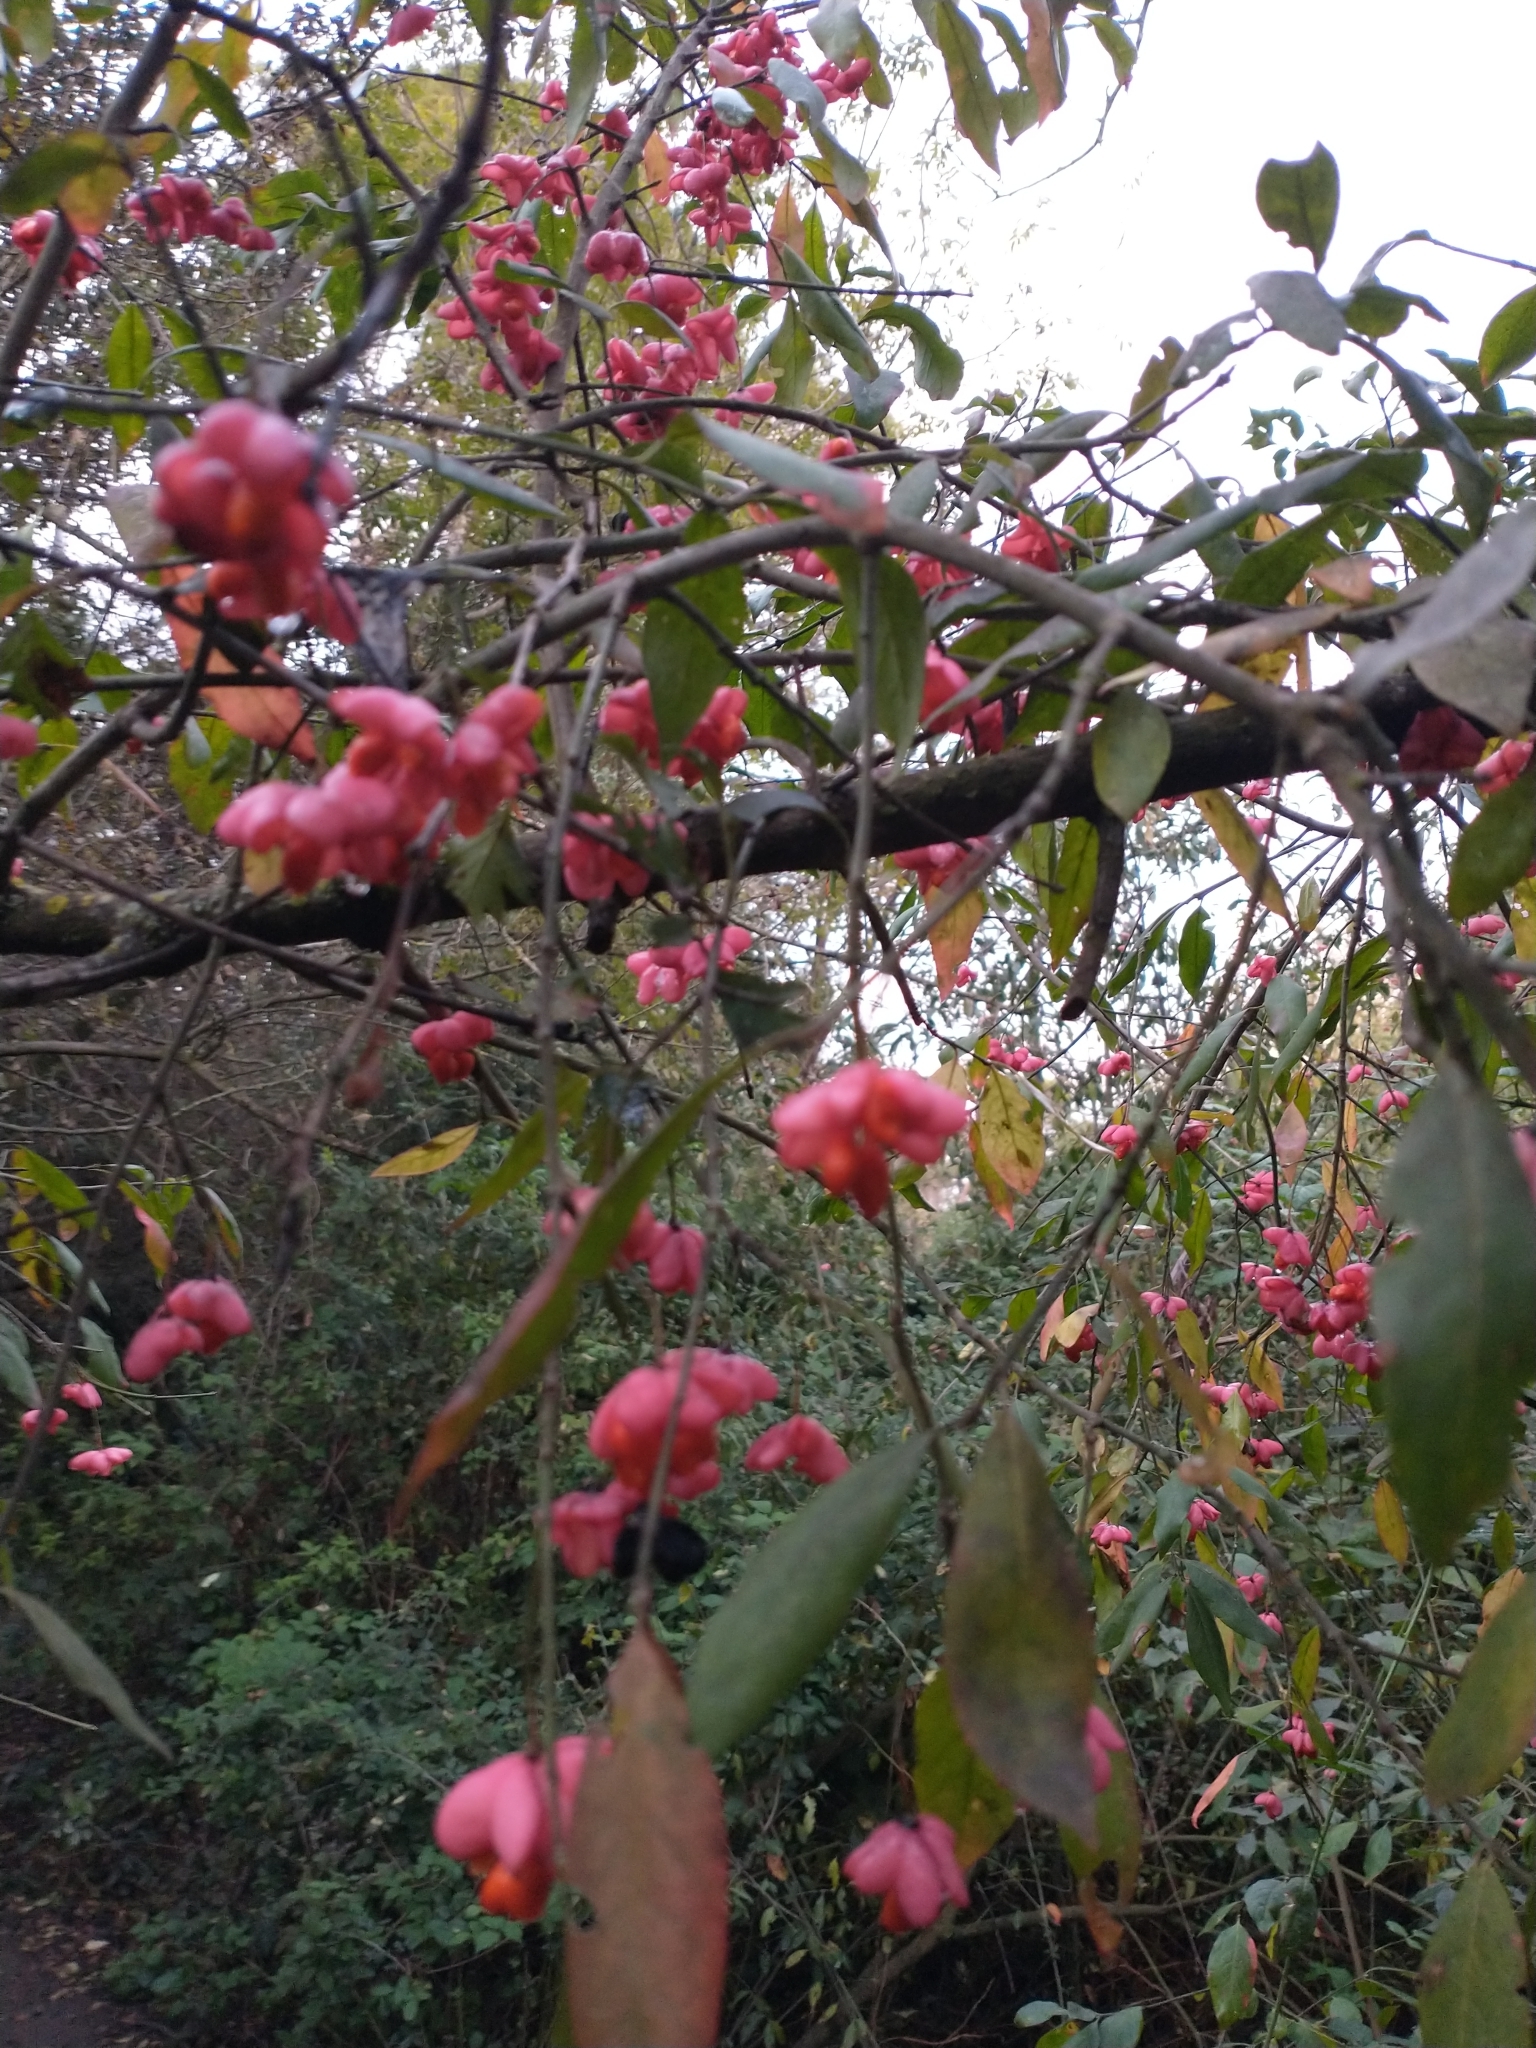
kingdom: Plantae
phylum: Tracheophyta
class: Magnoliopsida
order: Celastrales
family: Celastraceae
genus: Euonymus
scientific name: Euonymus europaeus
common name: Spindle
